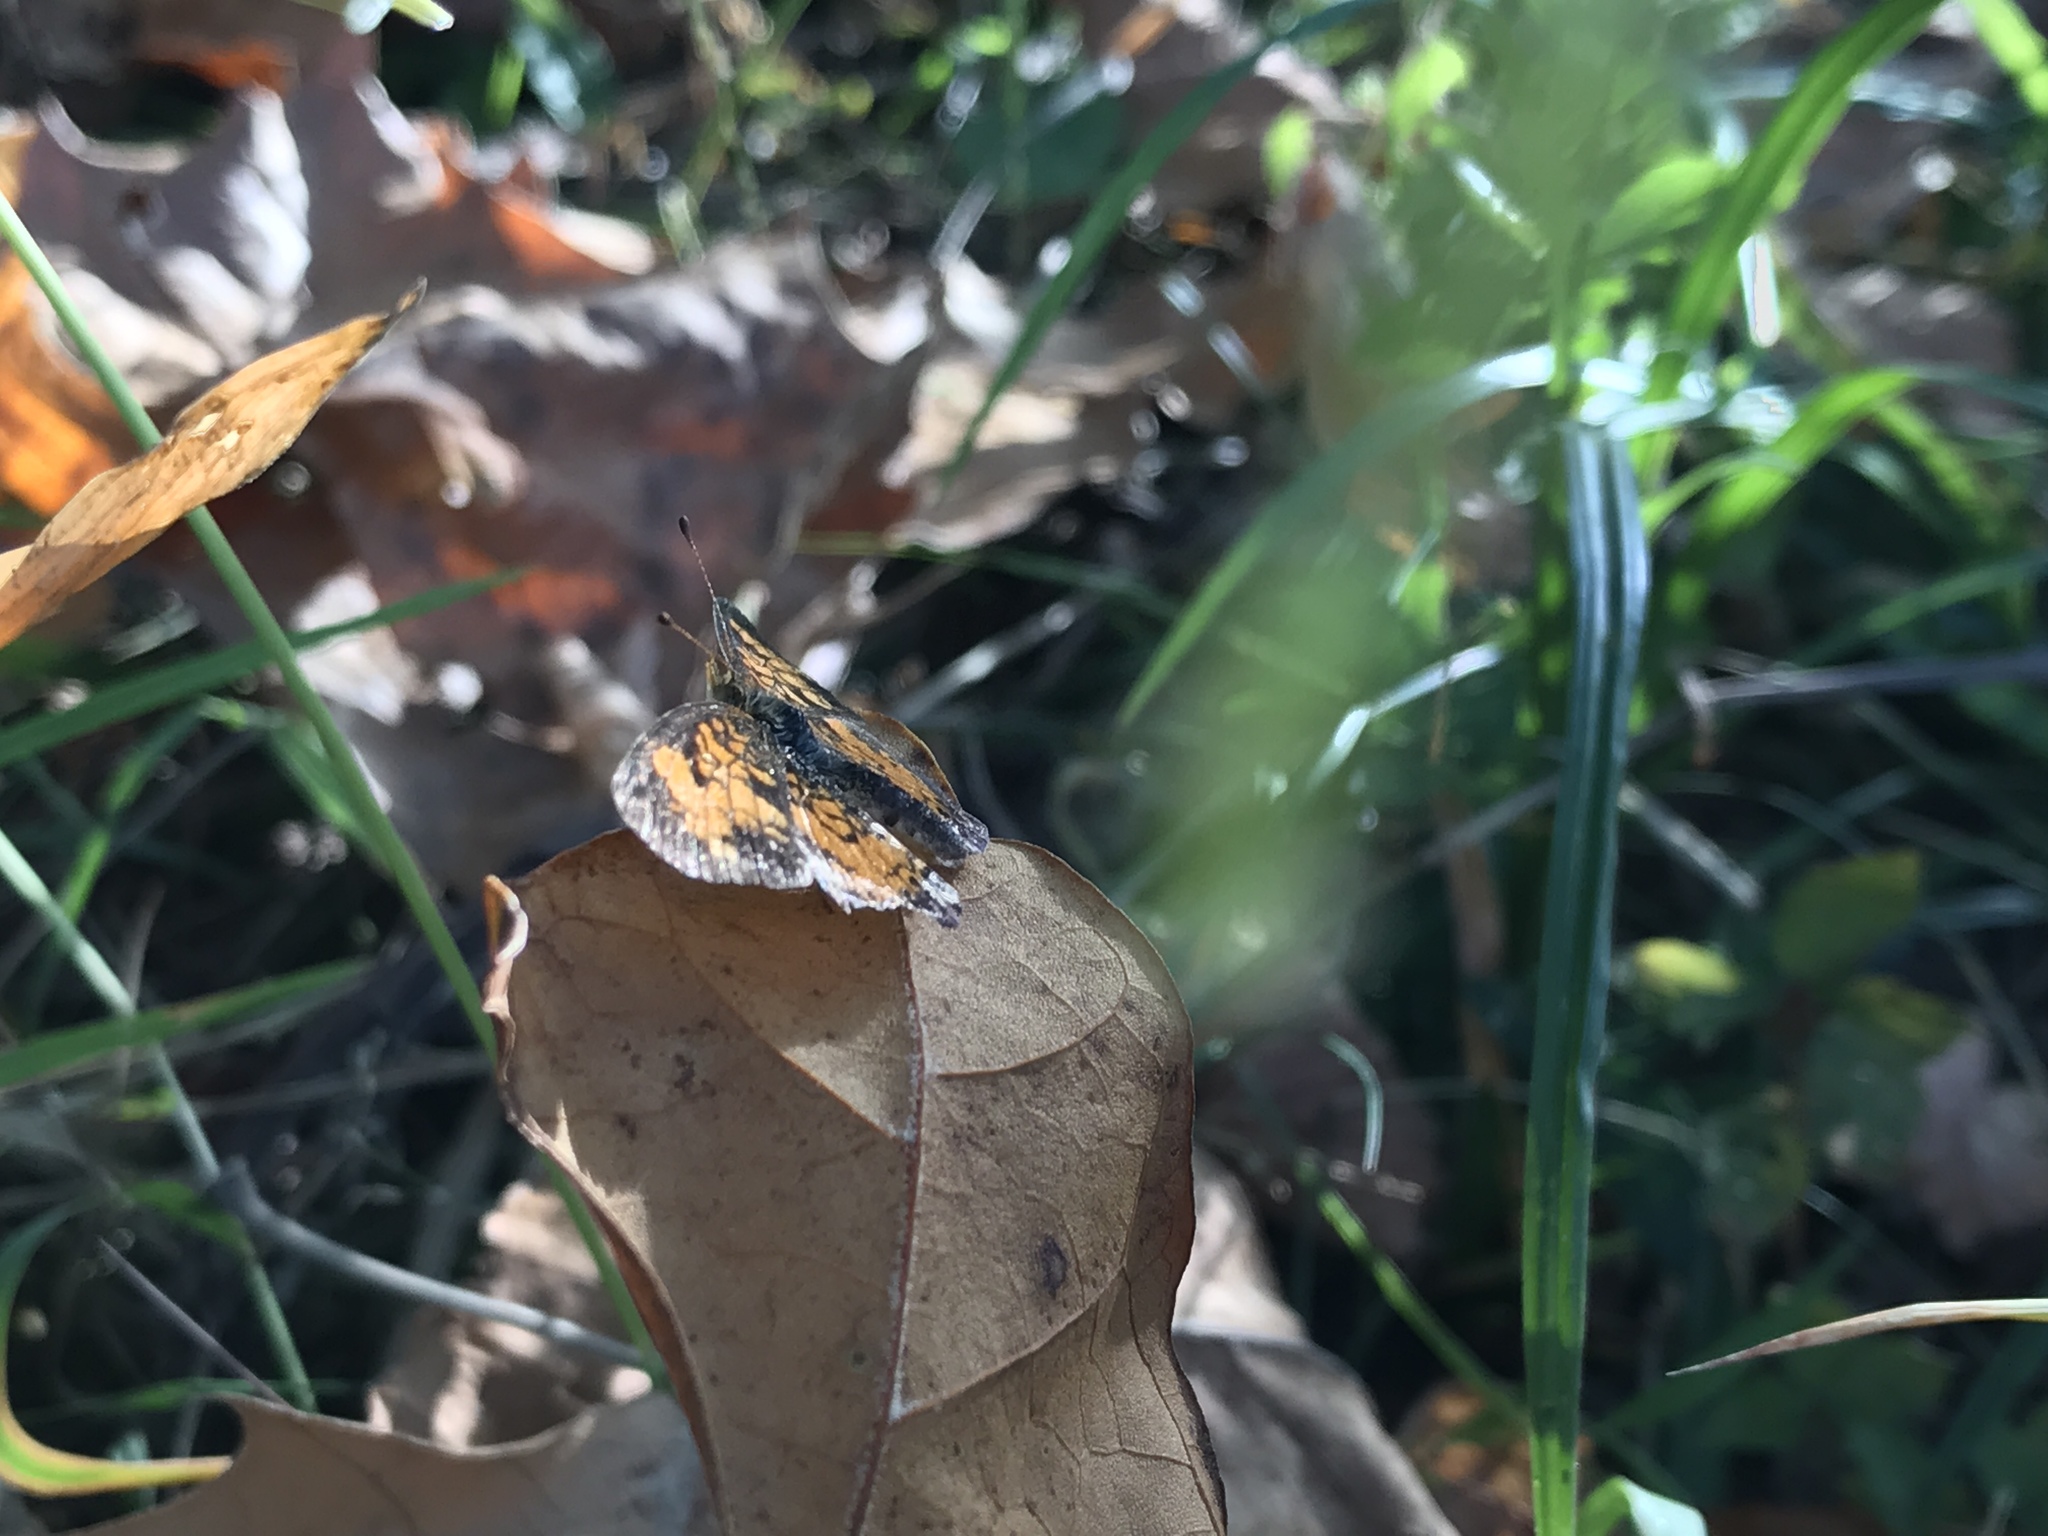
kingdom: Animalia
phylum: Arthropoda
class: Insecta
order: Lepidoptera
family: Nymphalidae
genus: Phyciodes
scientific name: Phyciodes tharos
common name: Pearl crescent
